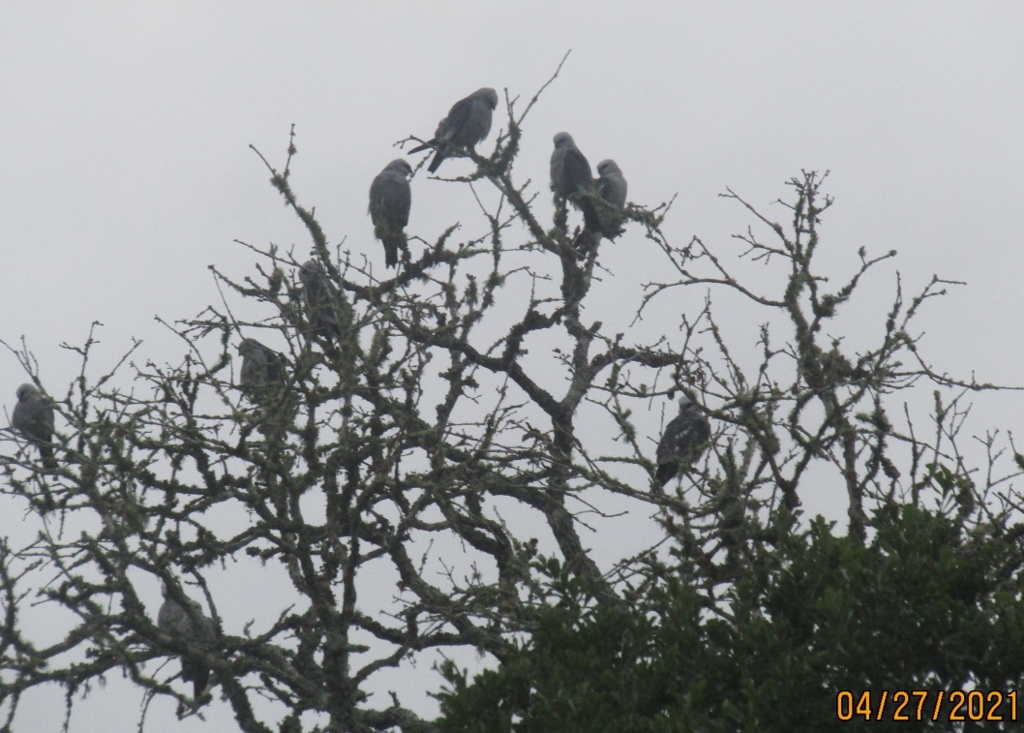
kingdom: Animalia
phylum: Chordata
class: Aves
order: Accipitriformes
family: Accipitridae
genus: Ictinia
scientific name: Ictinia mississippiensis
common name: Mississippi kite
